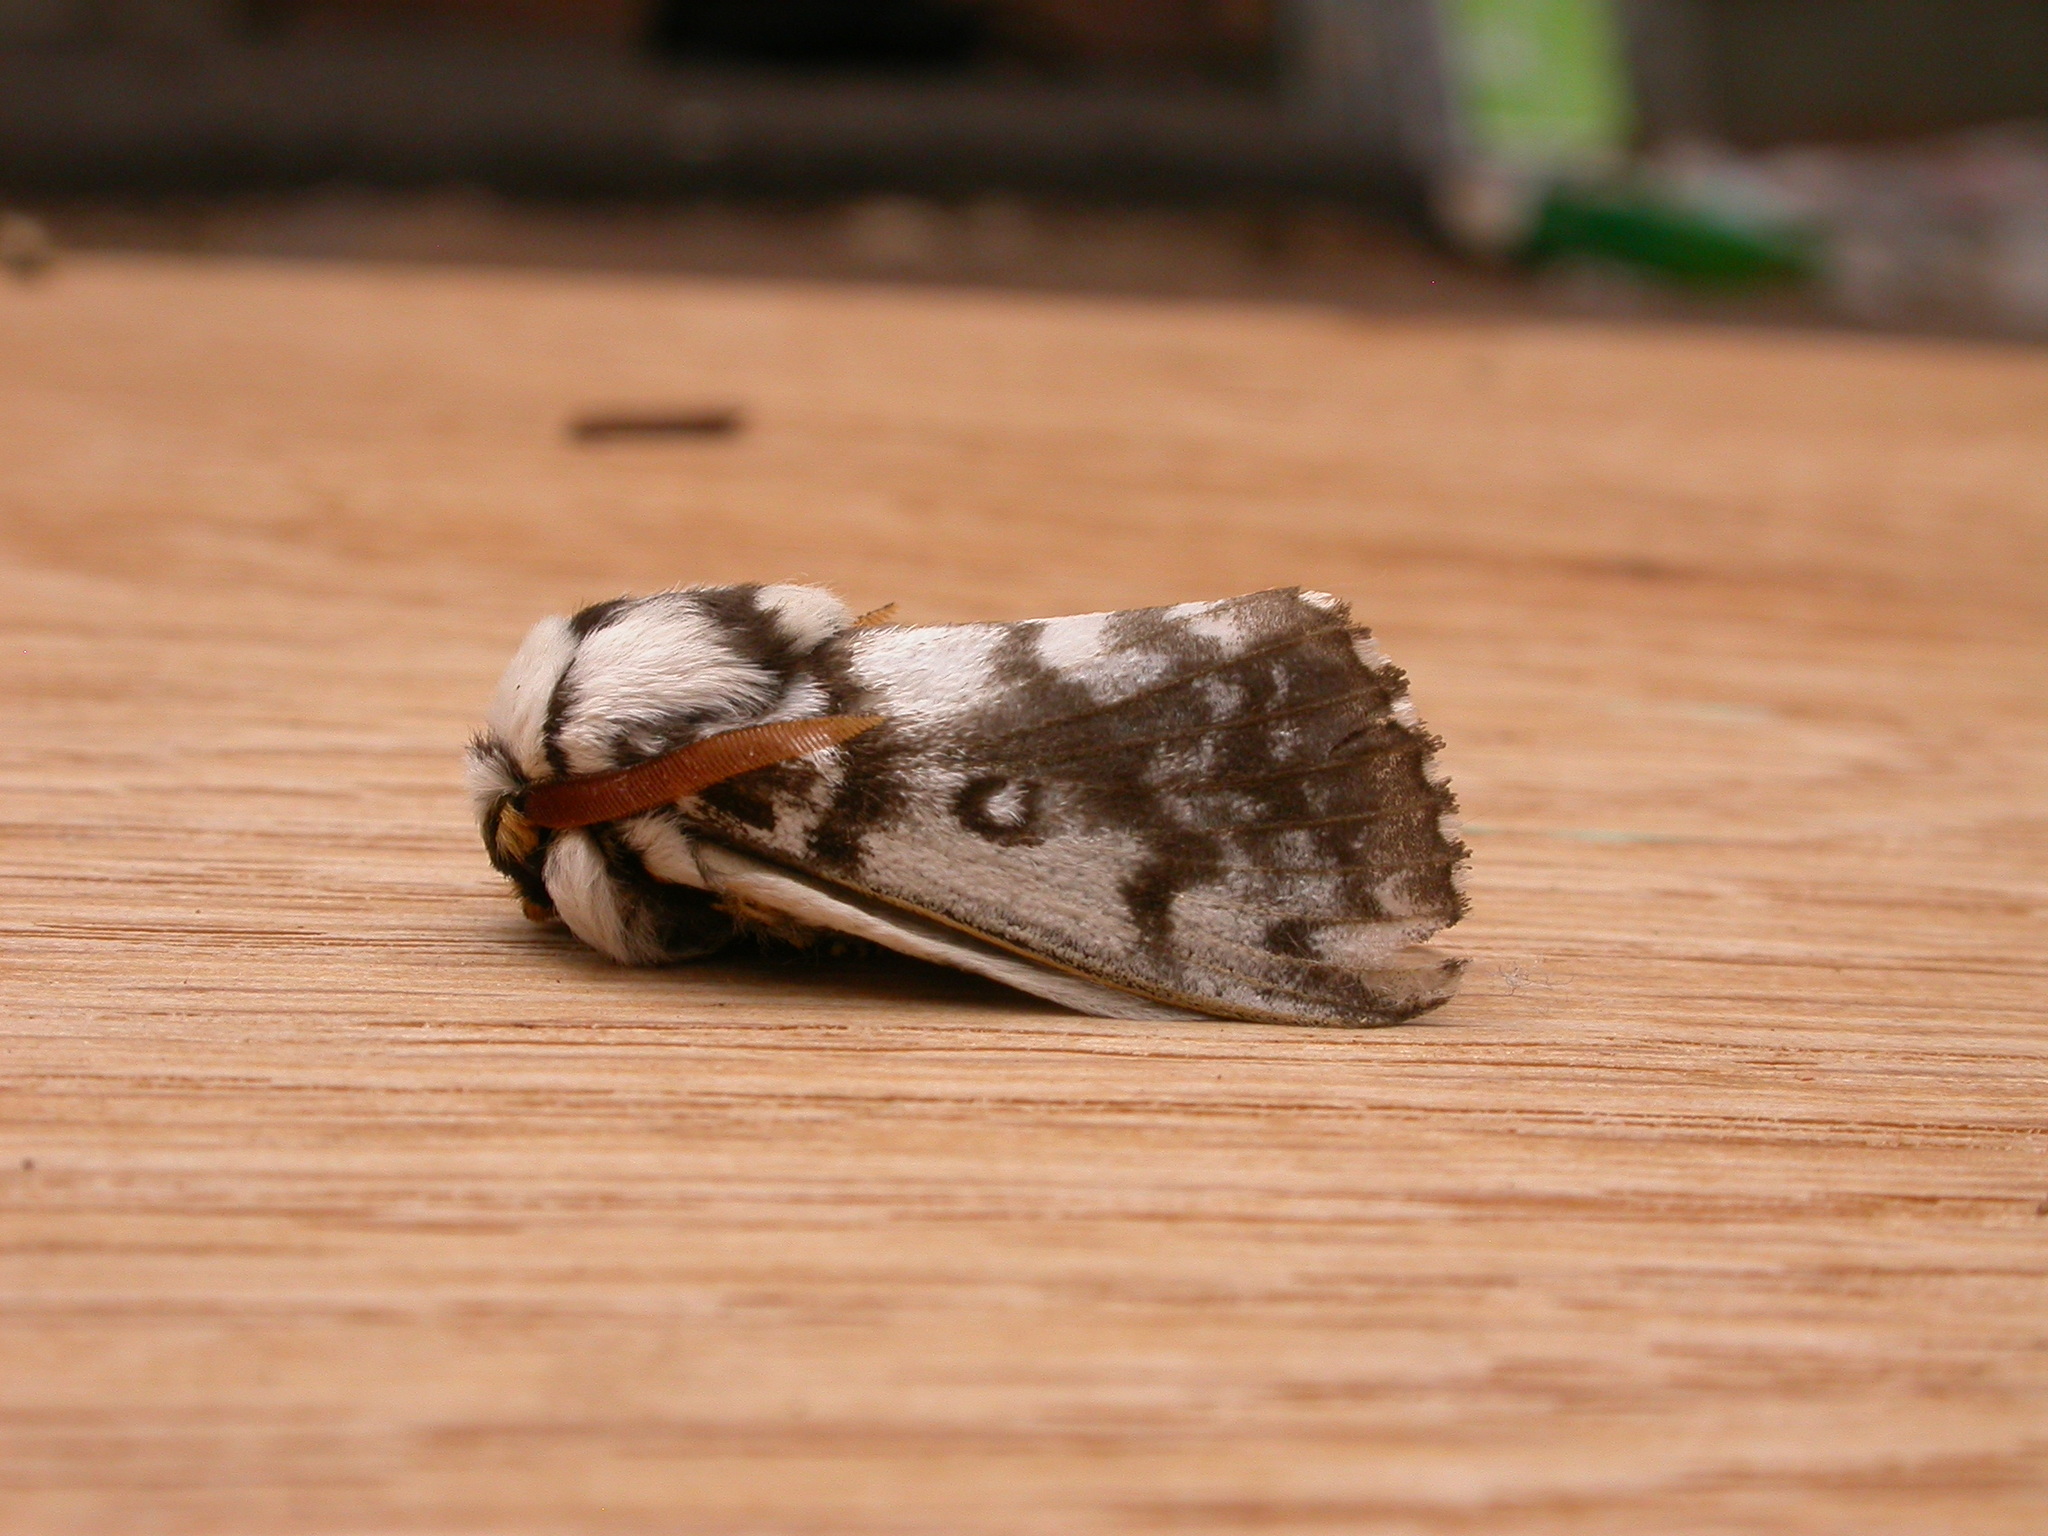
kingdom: Animalia
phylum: Arthropoda
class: Insecta
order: Lepidoptera
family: Lasiocampidae
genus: Porela
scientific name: Porela vitulina
